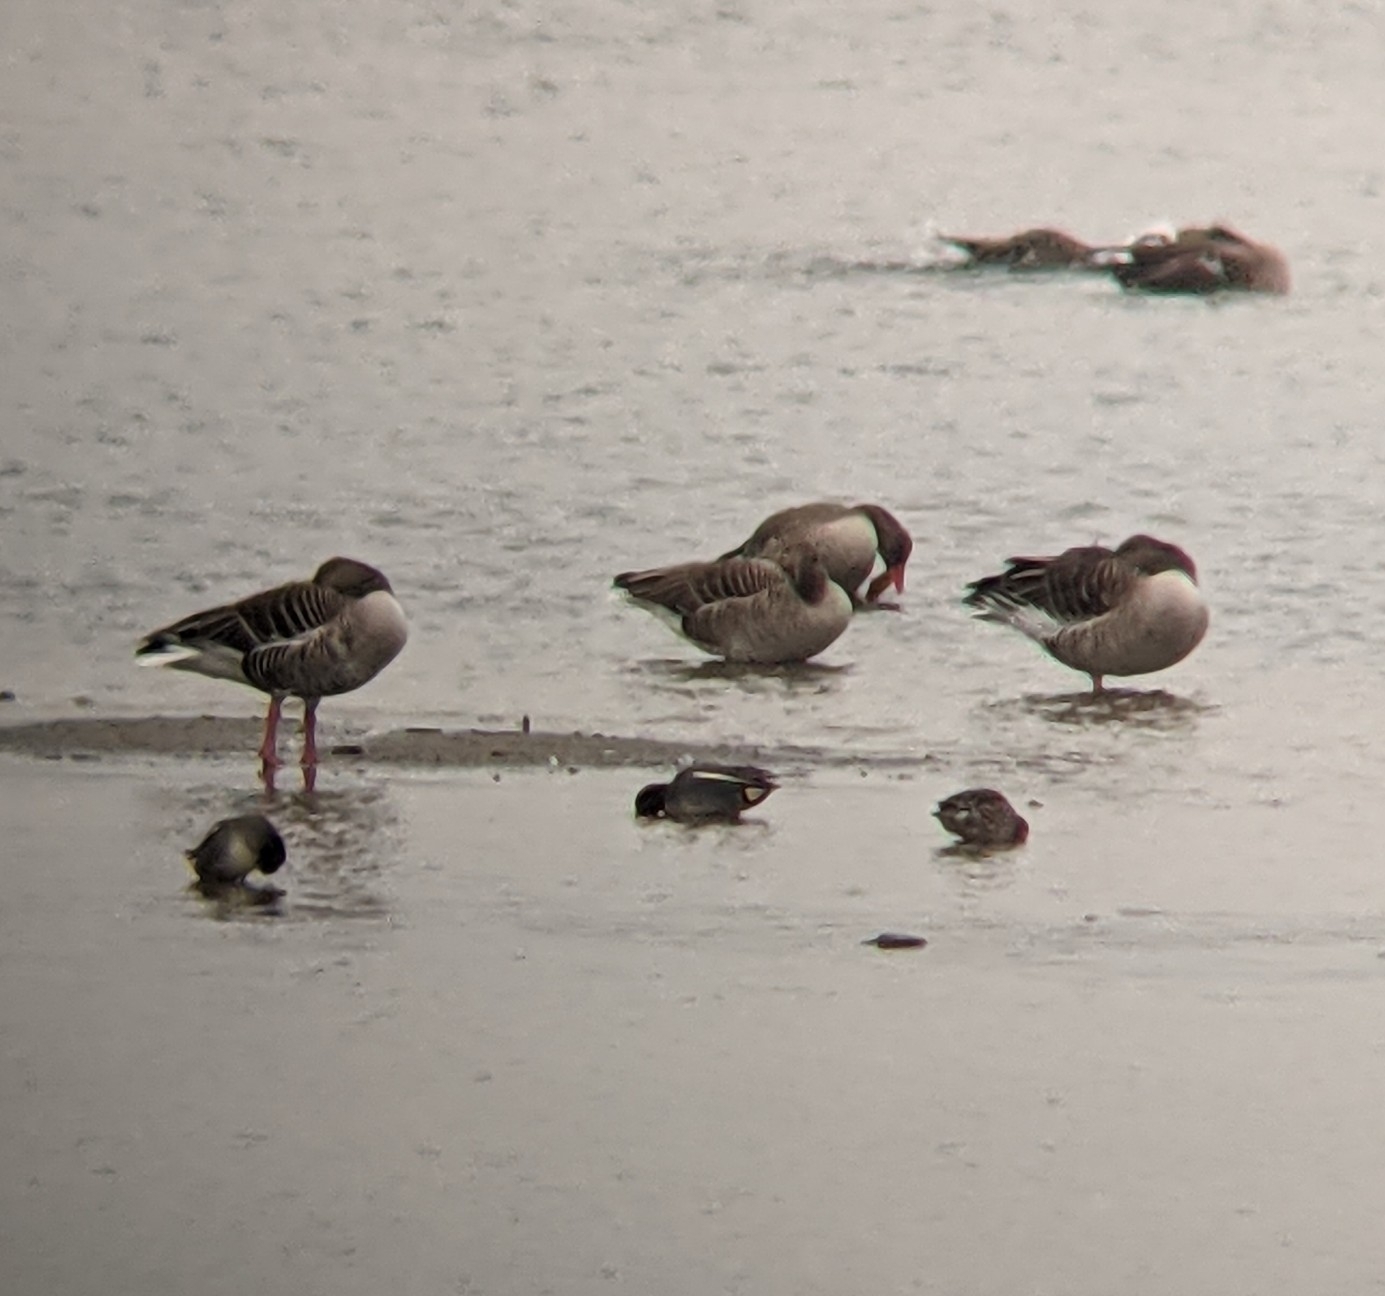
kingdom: Animalia
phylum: Chordata
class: Aves
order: Anseriformes
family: Anatidae
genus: Anser
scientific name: Anser anser
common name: Greylag goose
